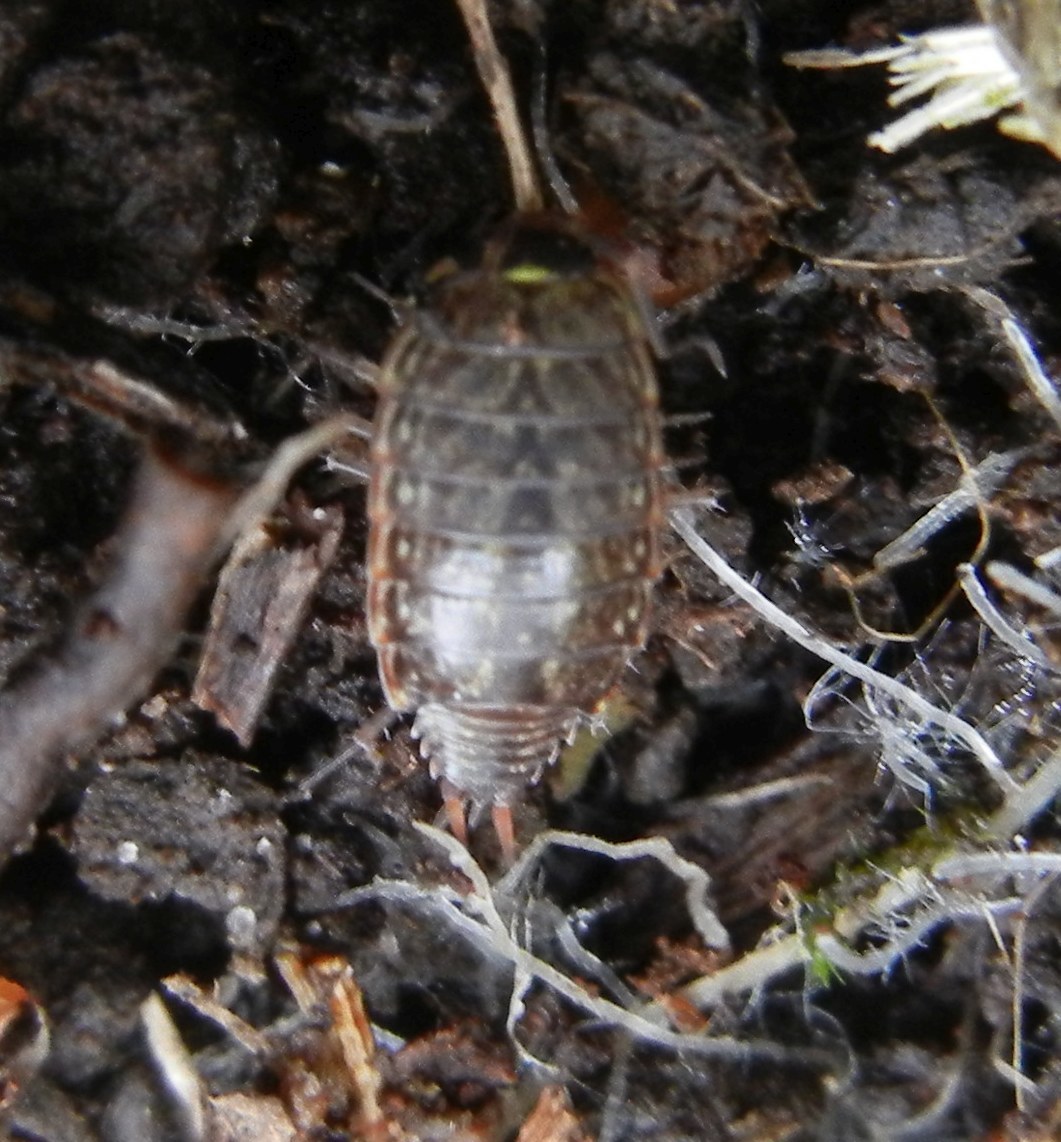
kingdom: Animalia
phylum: Arthropoda
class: Malacostraca
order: Isopoda
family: Philosciidae
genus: Philoscia
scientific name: Philoscia muscorum
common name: Common striped woodlouse
